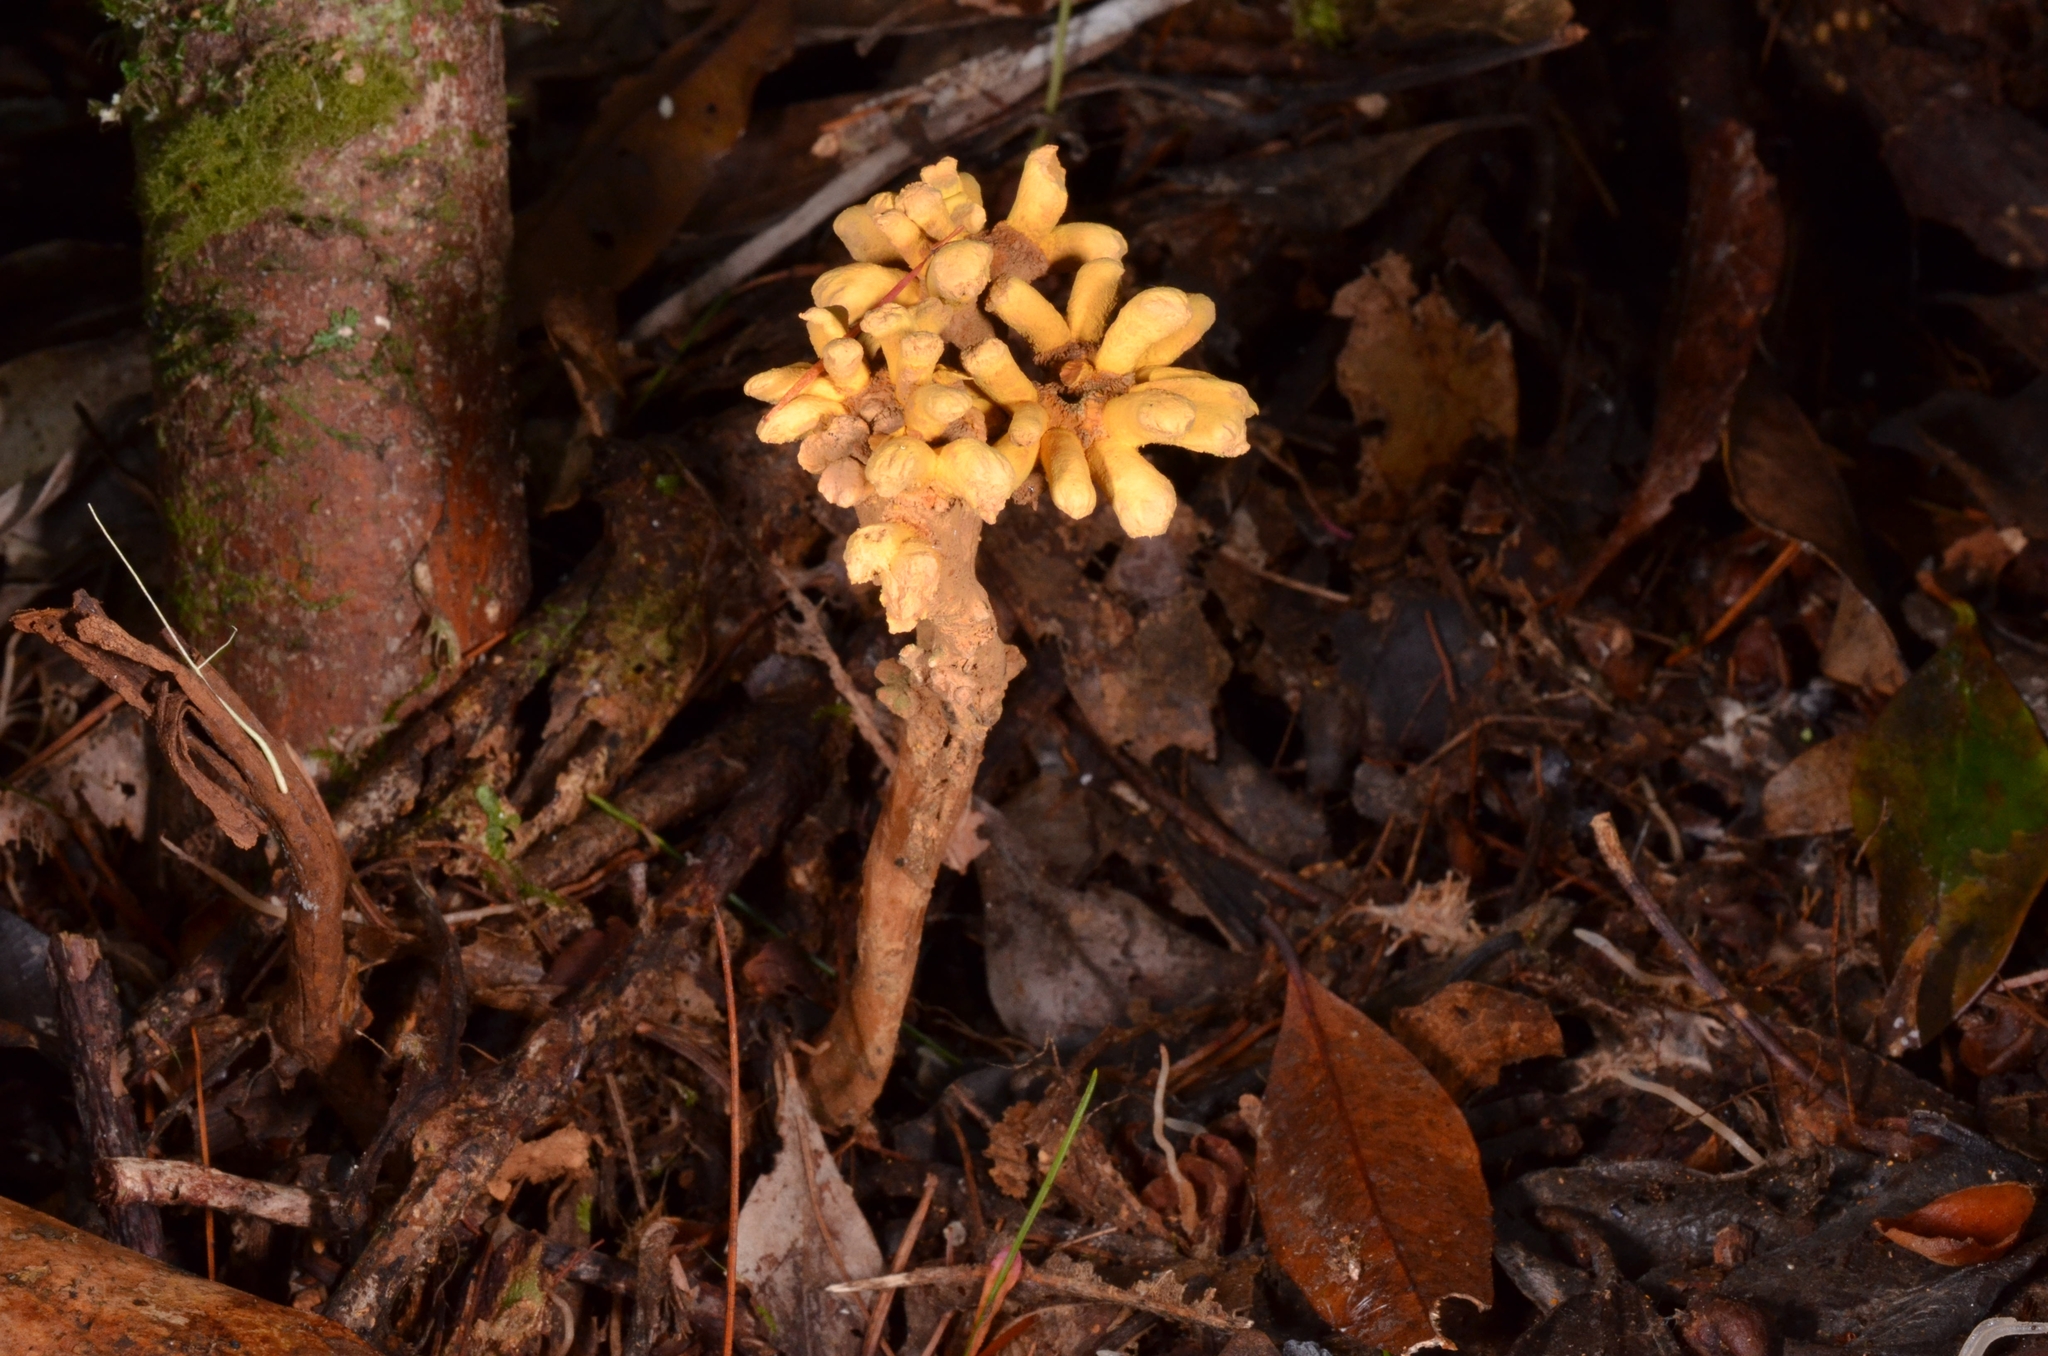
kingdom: Fungi
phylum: Ascomycota
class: Eurotiomycetes
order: Eurotiales
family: Aspergillaceae
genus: Dendrosphaera
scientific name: Dendrosphaera eberhardtii
